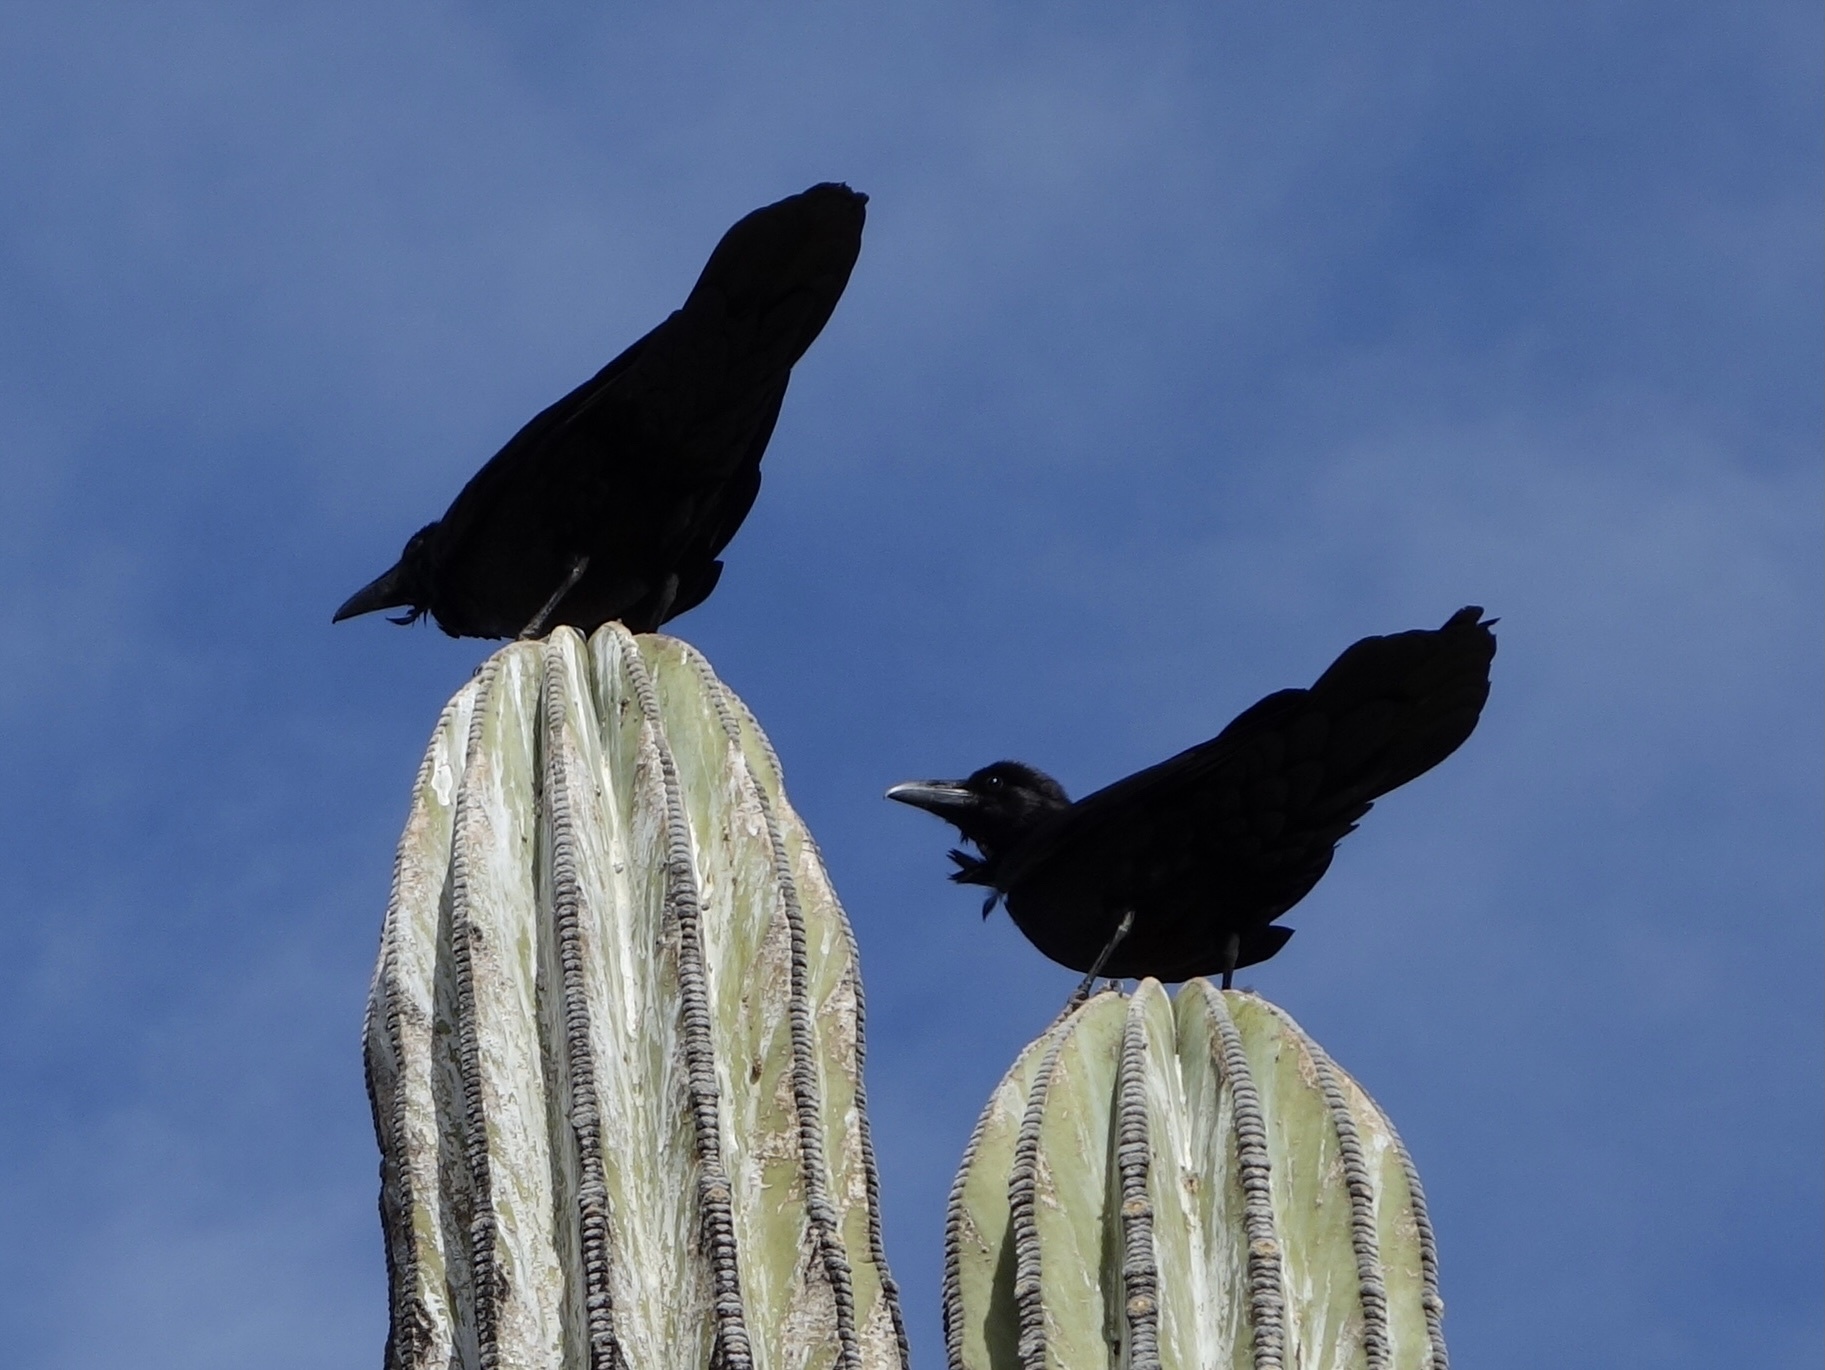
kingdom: Animalia
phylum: Chordata
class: Aves
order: Passeriformes
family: Corvidae
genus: Corvus
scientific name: Corvus corax
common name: Common raven
